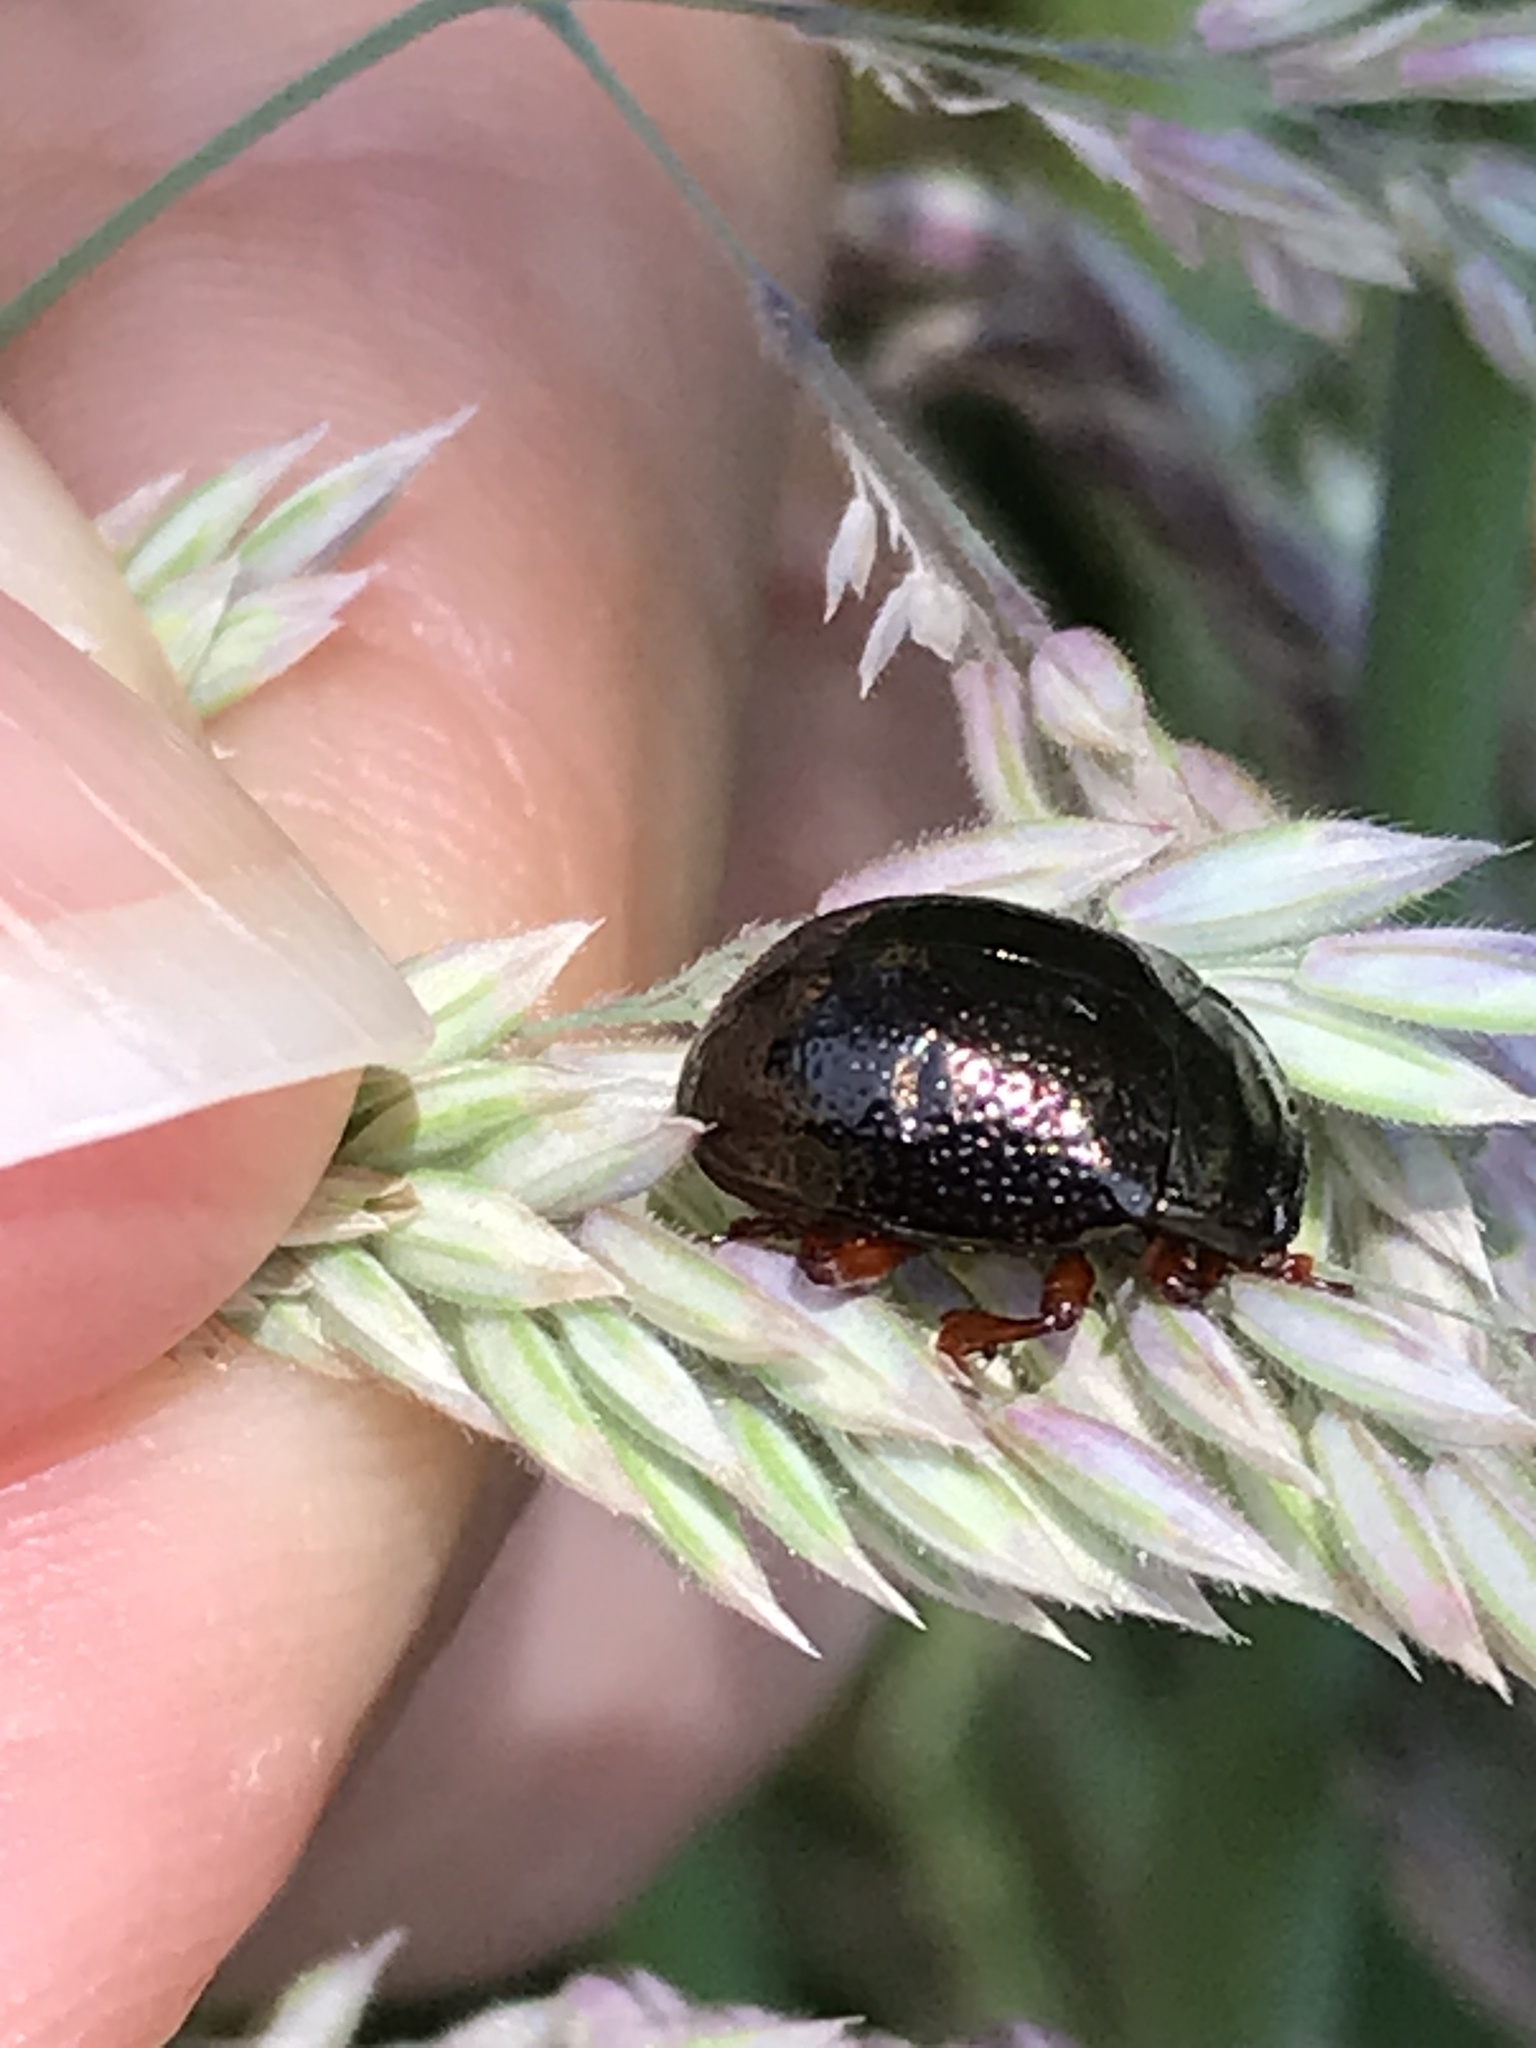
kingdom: Animalia
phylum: Arthropoda
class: Insecta
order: Coleoptera
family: Chrysomelidae
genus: Chrysolina
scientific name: Chrysolina bankii
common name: Leaf beetle
